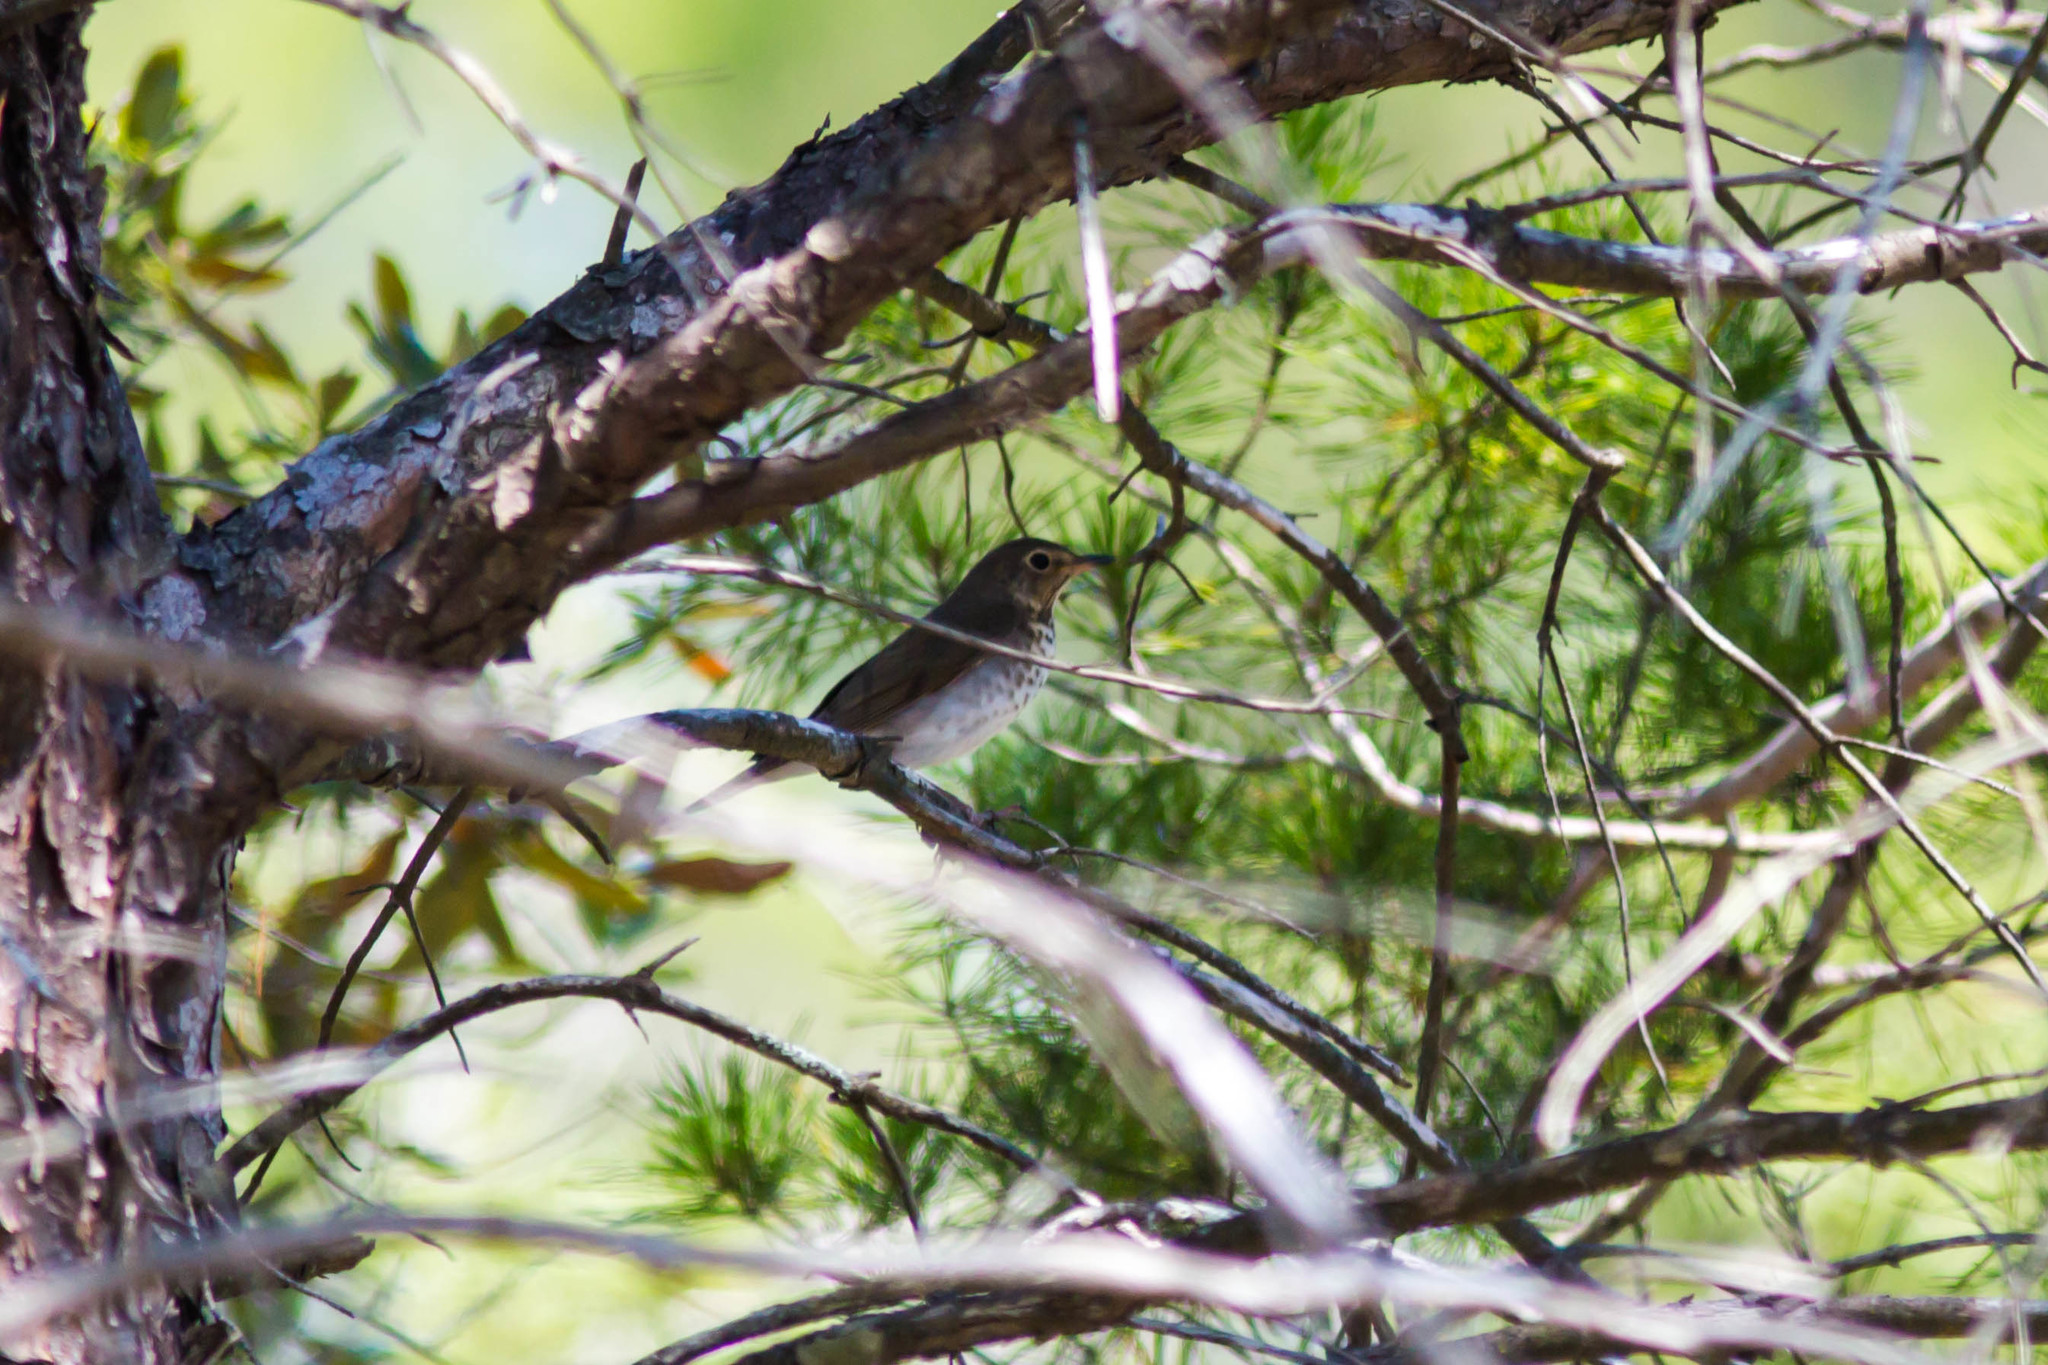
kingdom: Animalia
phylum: Chordata
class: Aves
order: Passeriformes
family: Turdidae
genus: Catharus
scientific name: Catharus ustulatus
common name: Swainson's thrush
